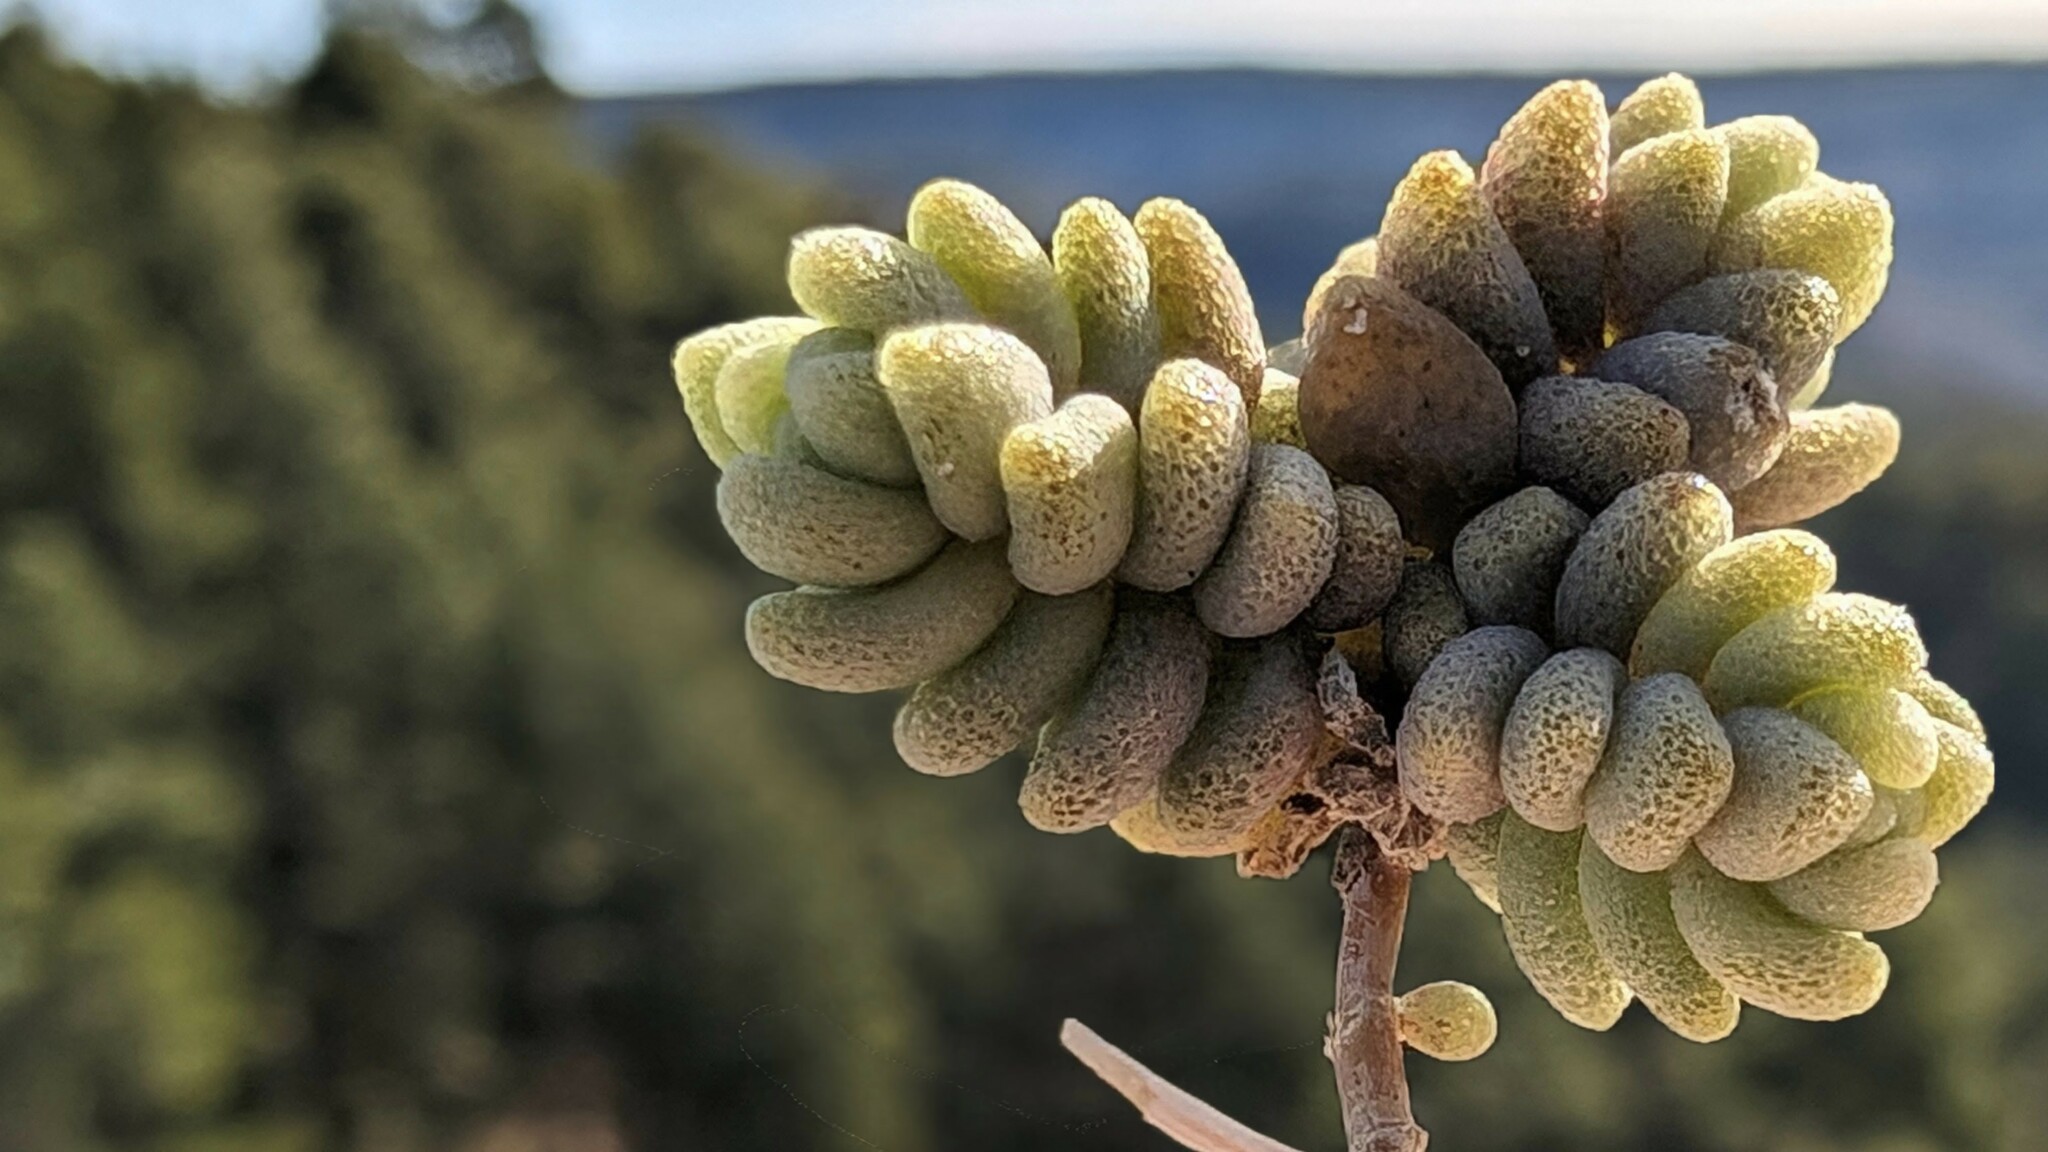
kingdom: Plantae
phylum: Tracheophyta
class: Magnoliopsida
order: Saxifragales
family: Crassulaceae
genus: Sedum
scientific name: Sedum dasyphyllum
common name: Thick-leaf stonecrop
